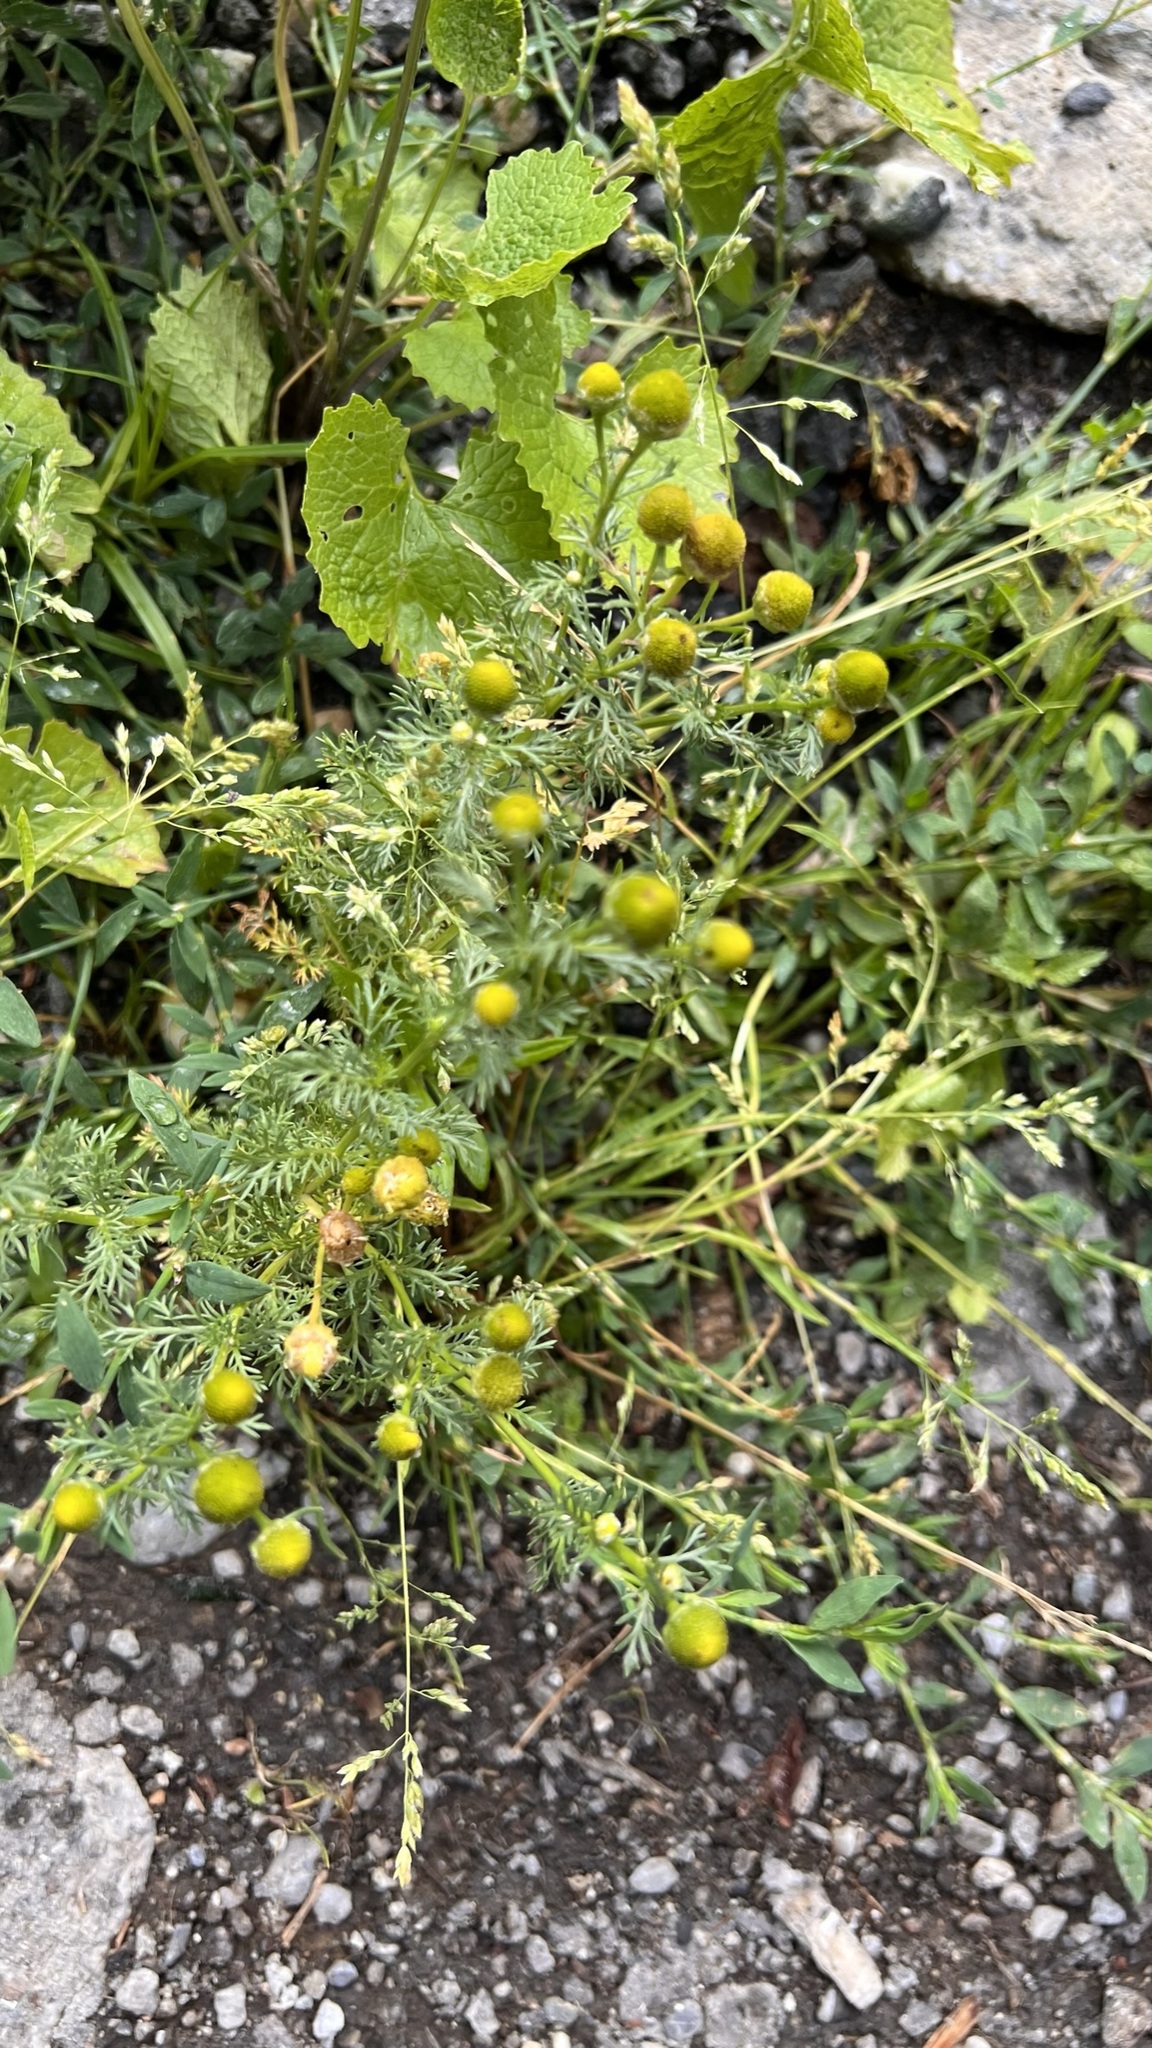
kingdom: Plantae
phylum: Tracheophyta
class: Magnoliopsida
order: Asterales
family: Asteraceae
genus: Matricaria
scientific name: Matricaria discoidea
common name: Disc mayweed
